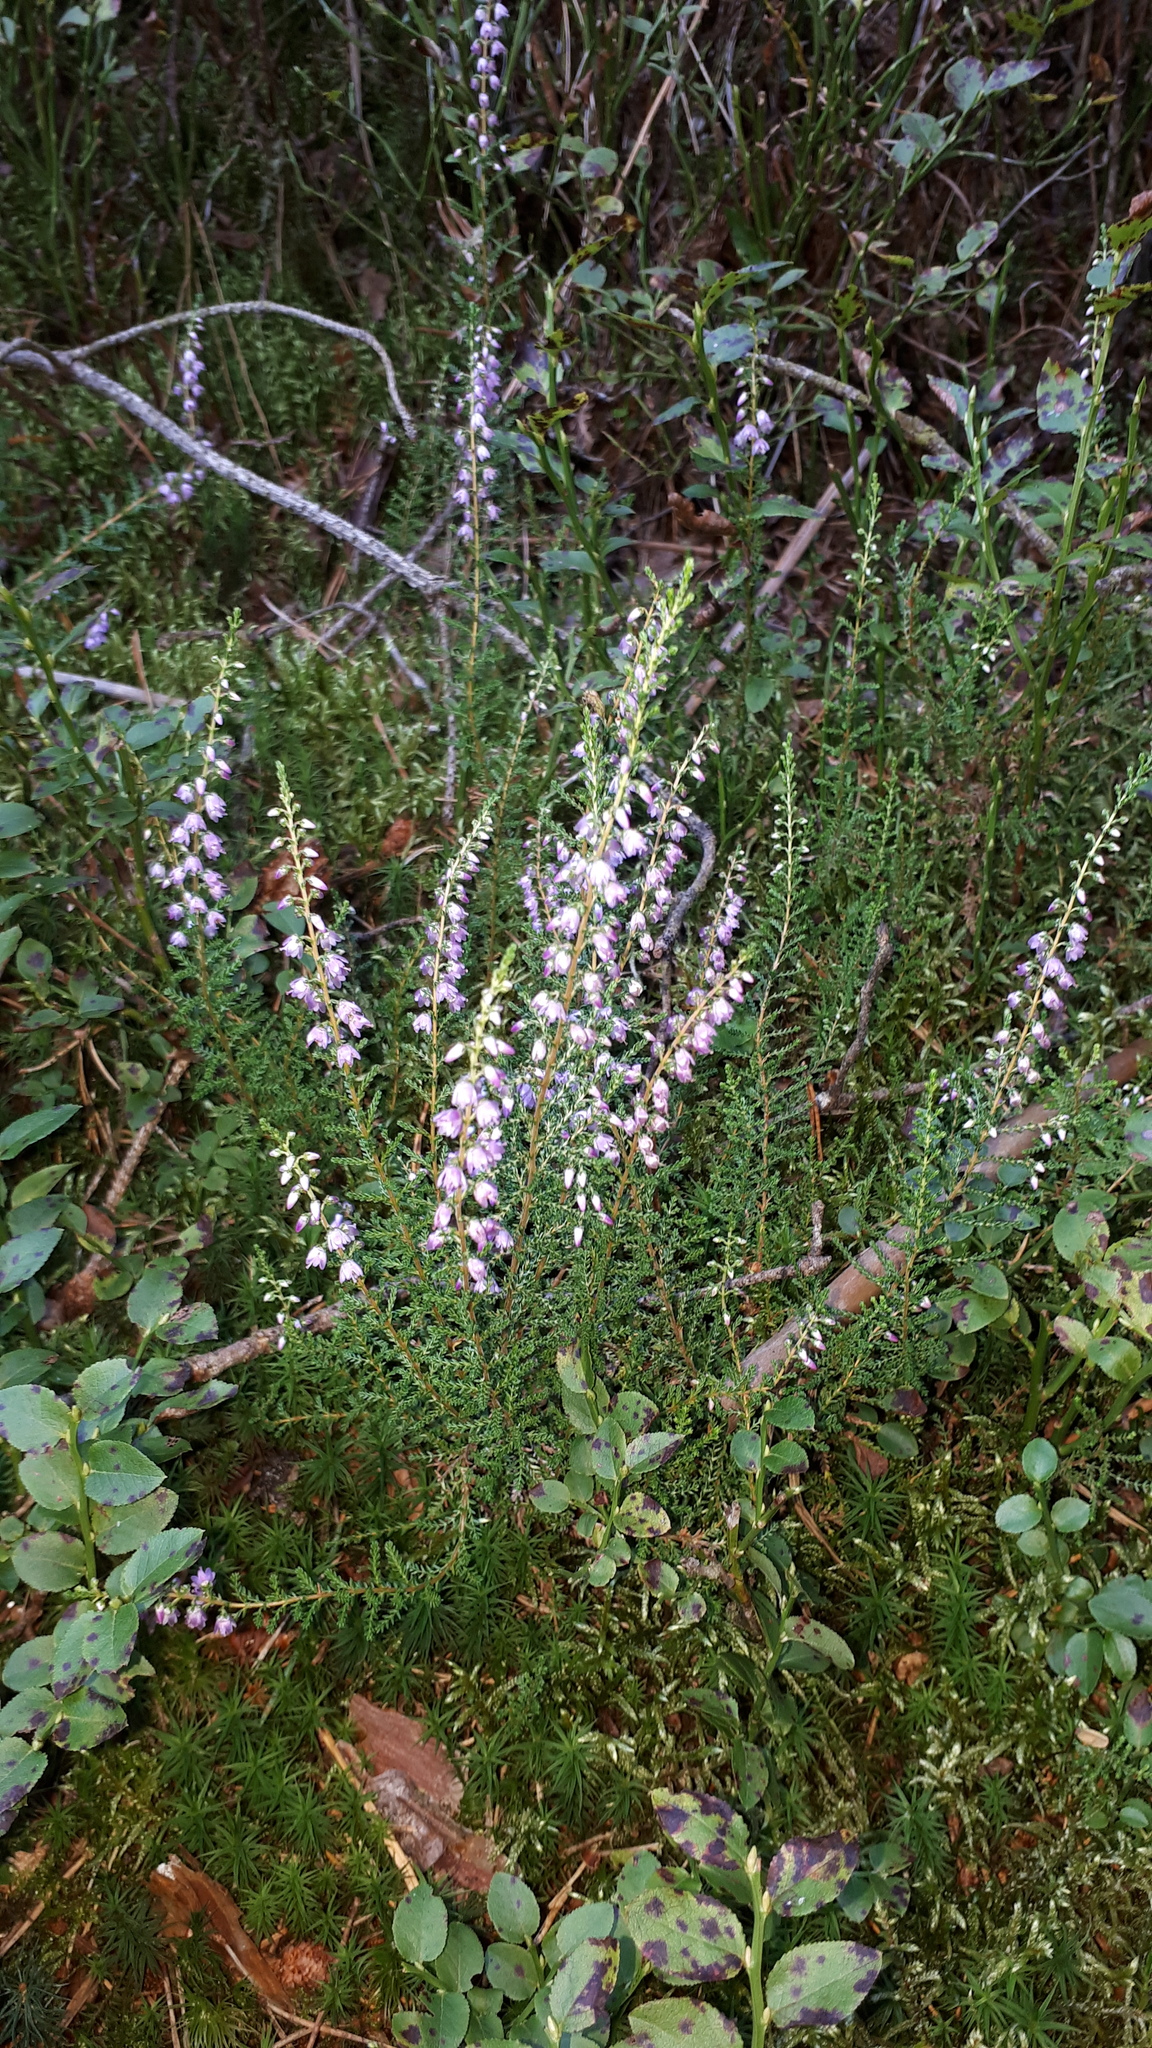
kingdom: Plantae
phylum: Tracheophyta
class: Magnoliopsida
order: Ericales
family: Ericaceae
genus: Calluna
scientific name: Calluna vulgaris
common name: Heather
